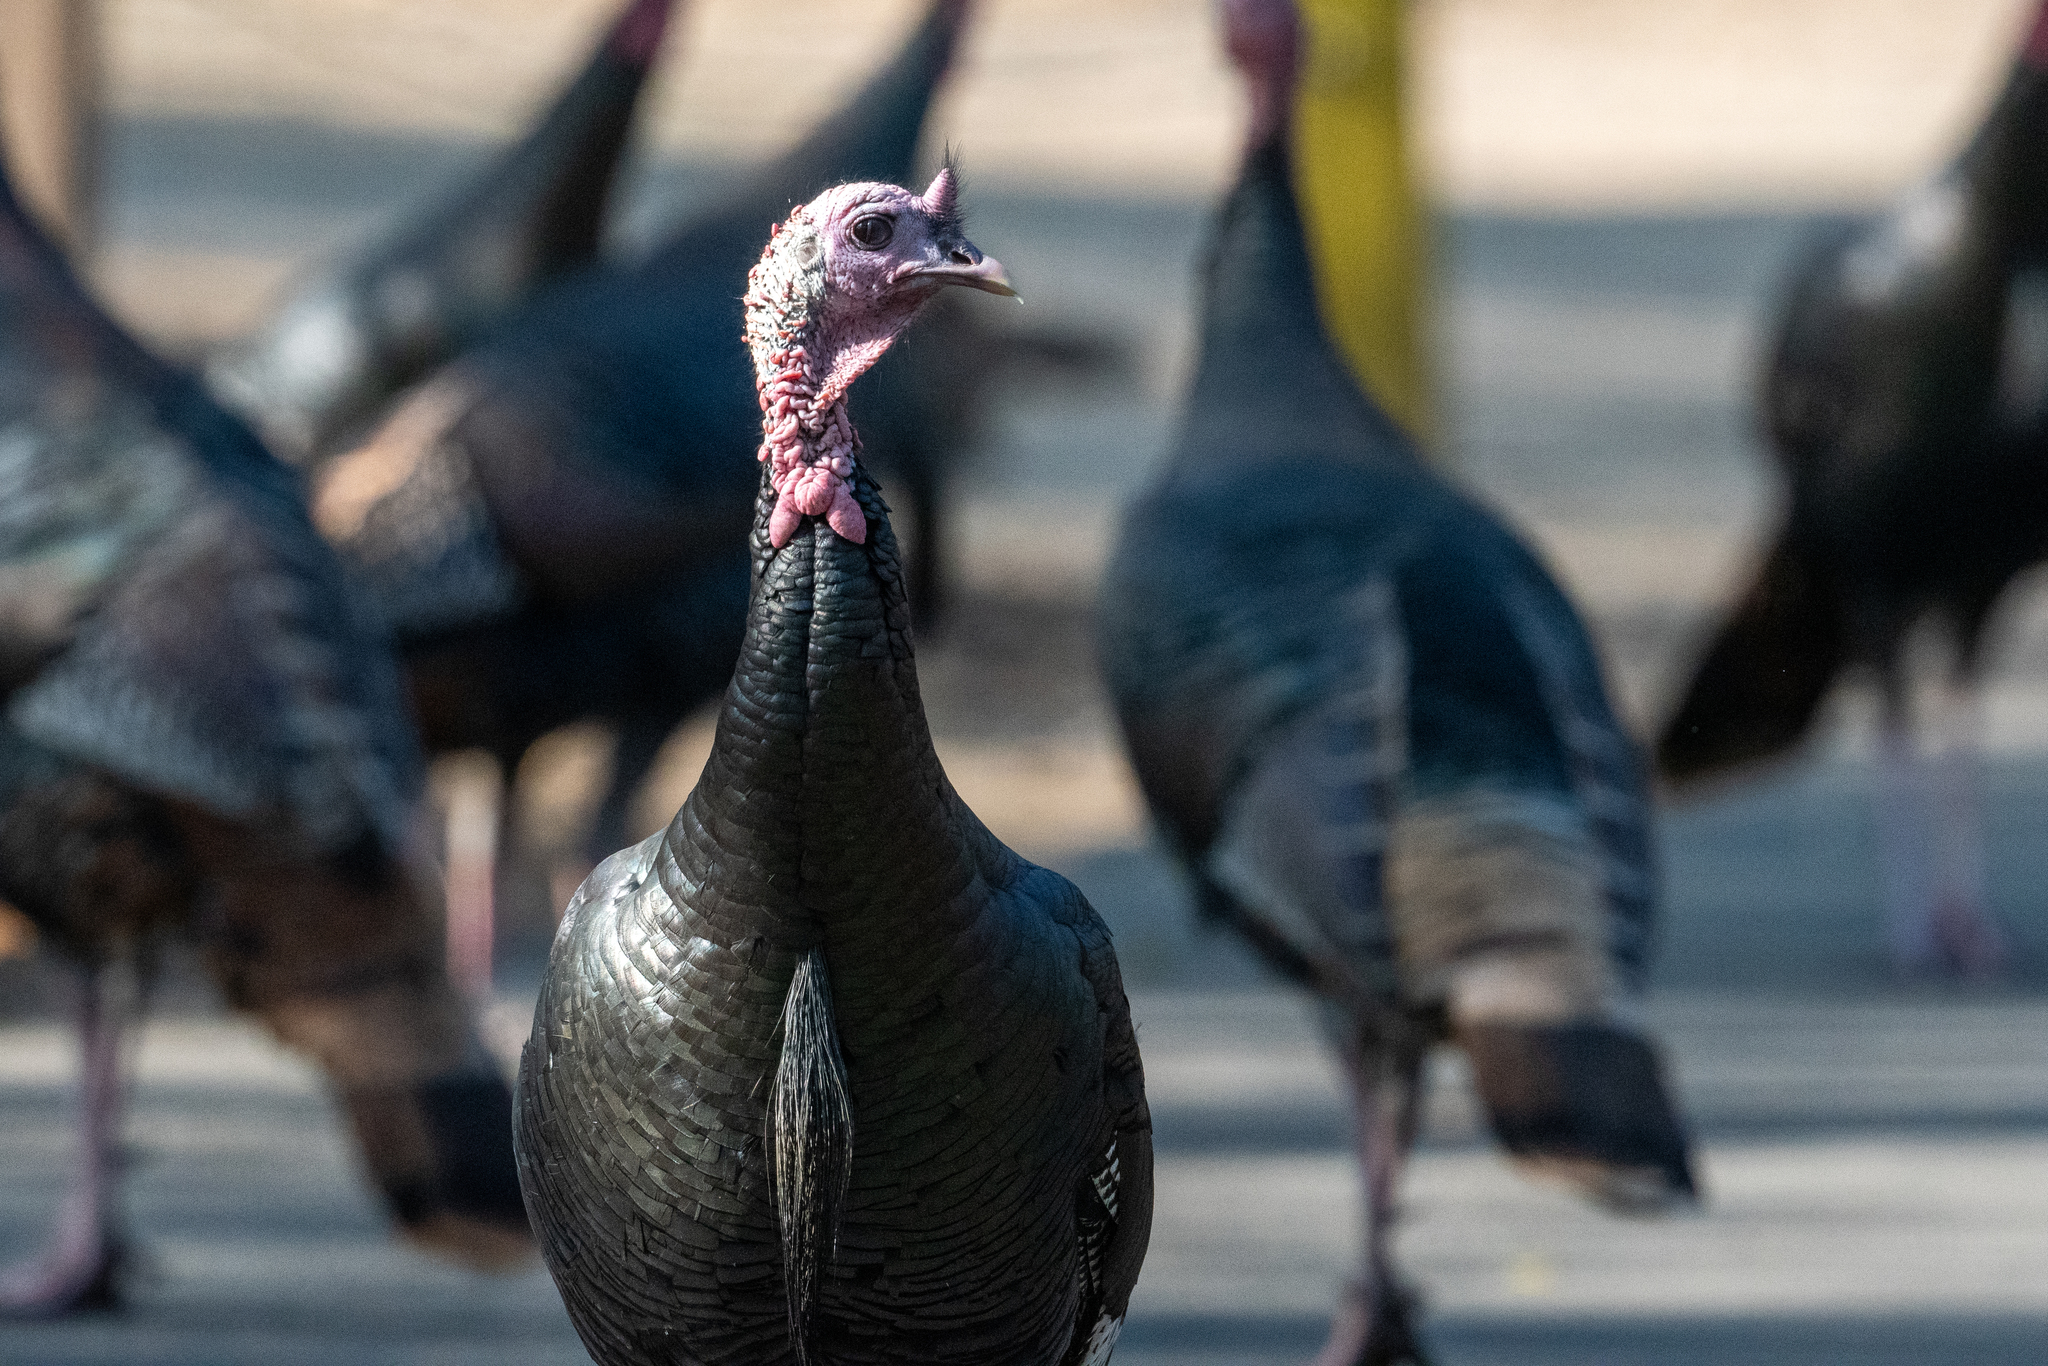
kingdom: Animalia
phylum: Chordata
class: Aves
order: Galliformes
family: Phasianidae
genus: Meleagris
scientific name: Meleagris gallopavo
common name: Wild turkey
